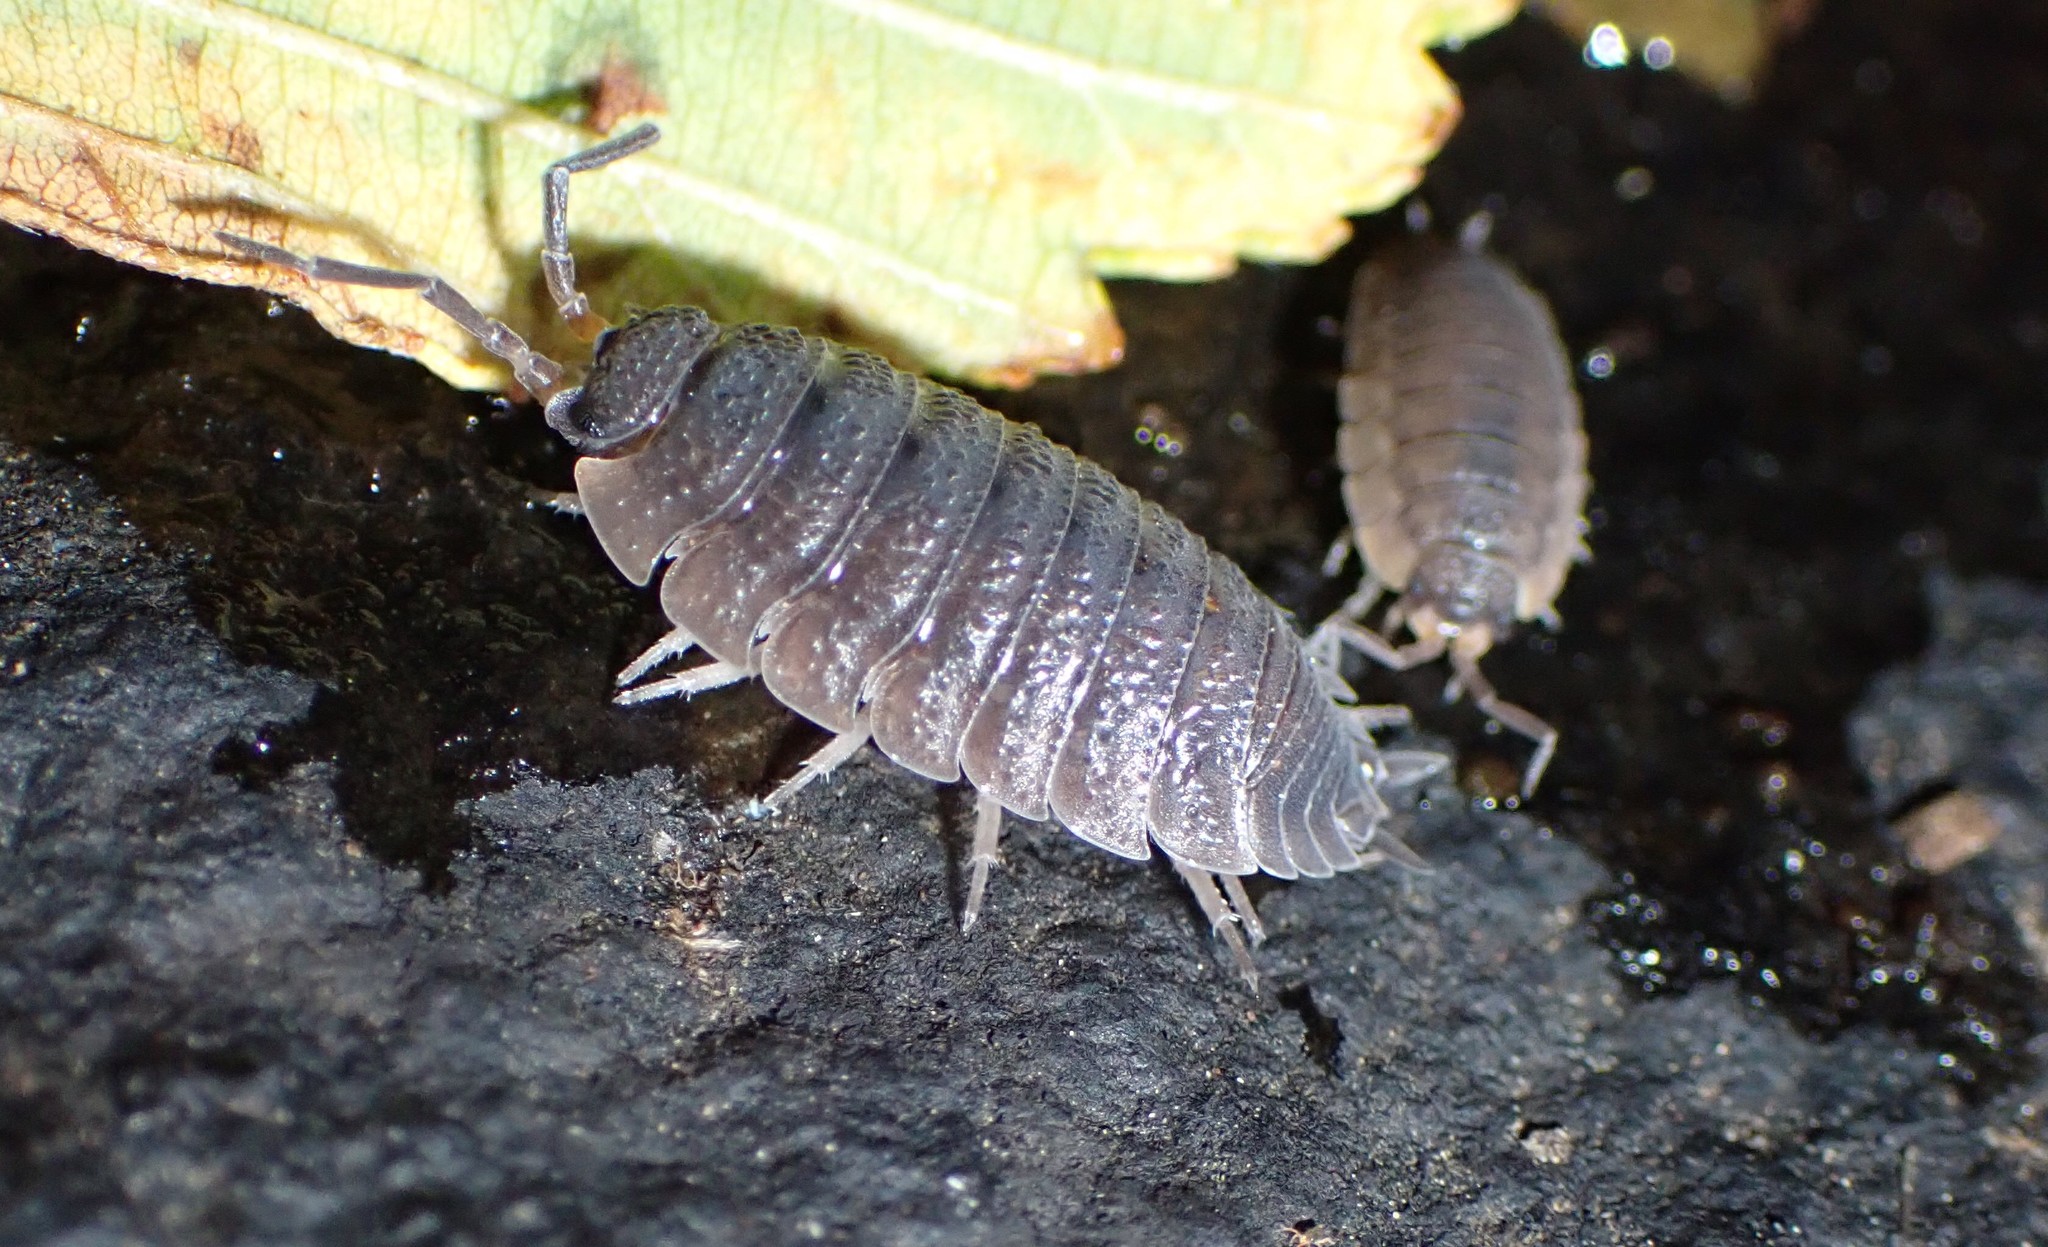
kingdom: Animalia
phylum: Arthropoda
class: Malacostraca
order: Isopoda
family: Porcellionidae
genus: Porcellio
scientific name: Porcellio scaber
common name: Common rough woodlouse
